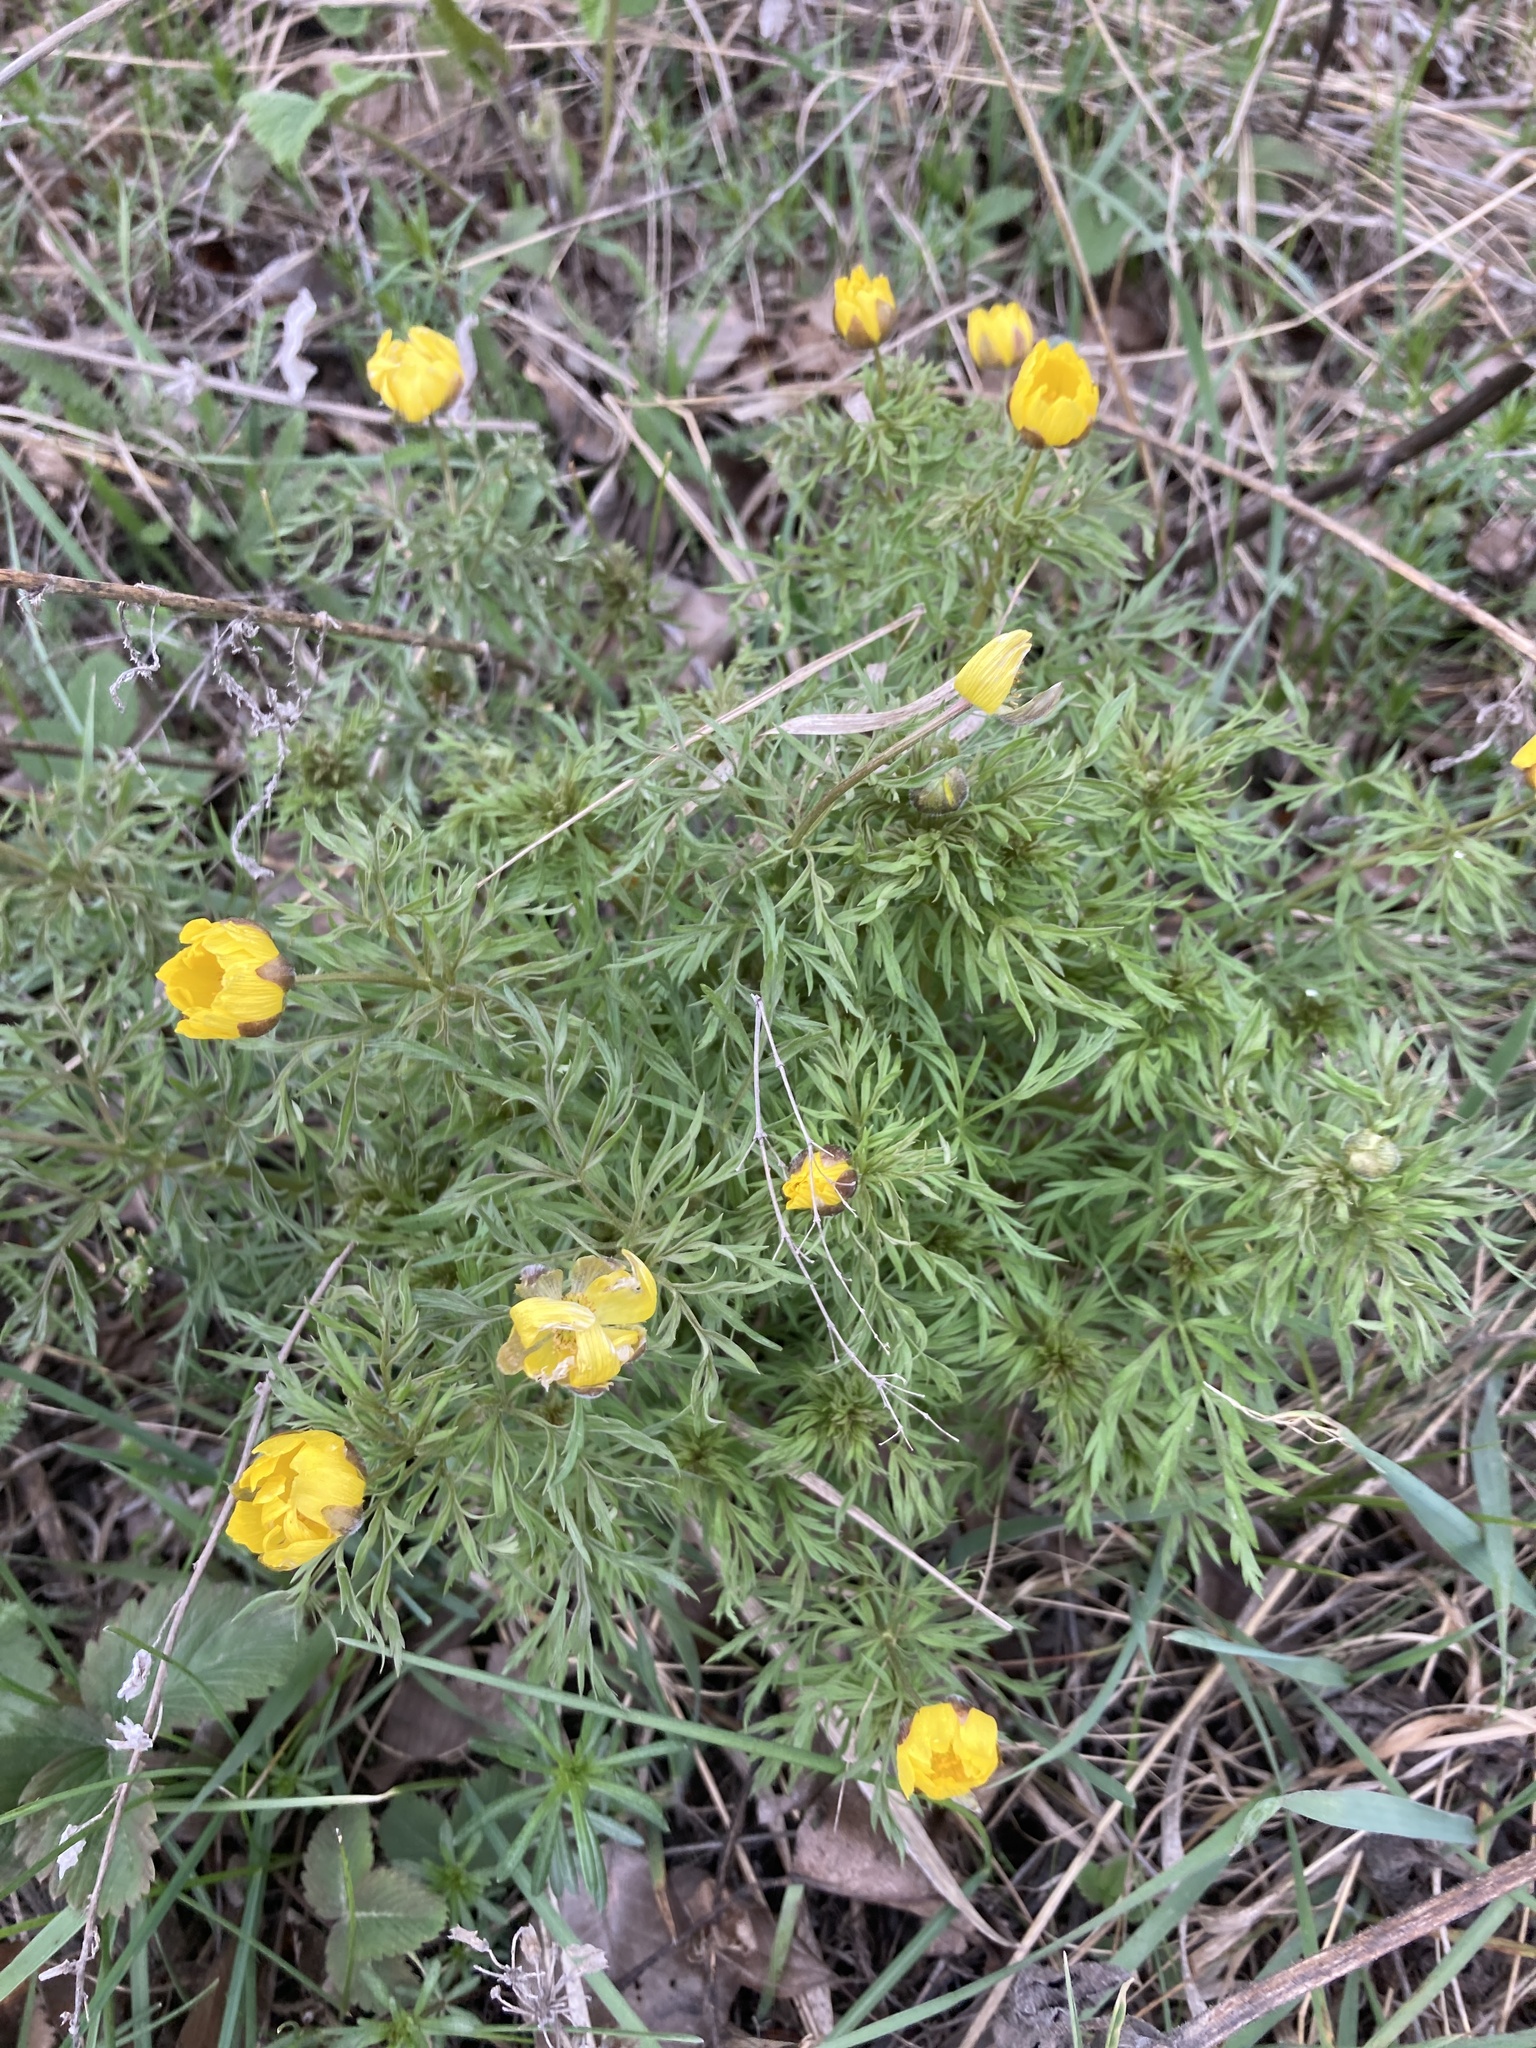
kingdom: Plantae
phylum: Tracheophyta
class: Magnoliopsida
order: Ranunculales
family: Ranunculaceae
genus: Adonis
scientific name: Adonis volgensis
